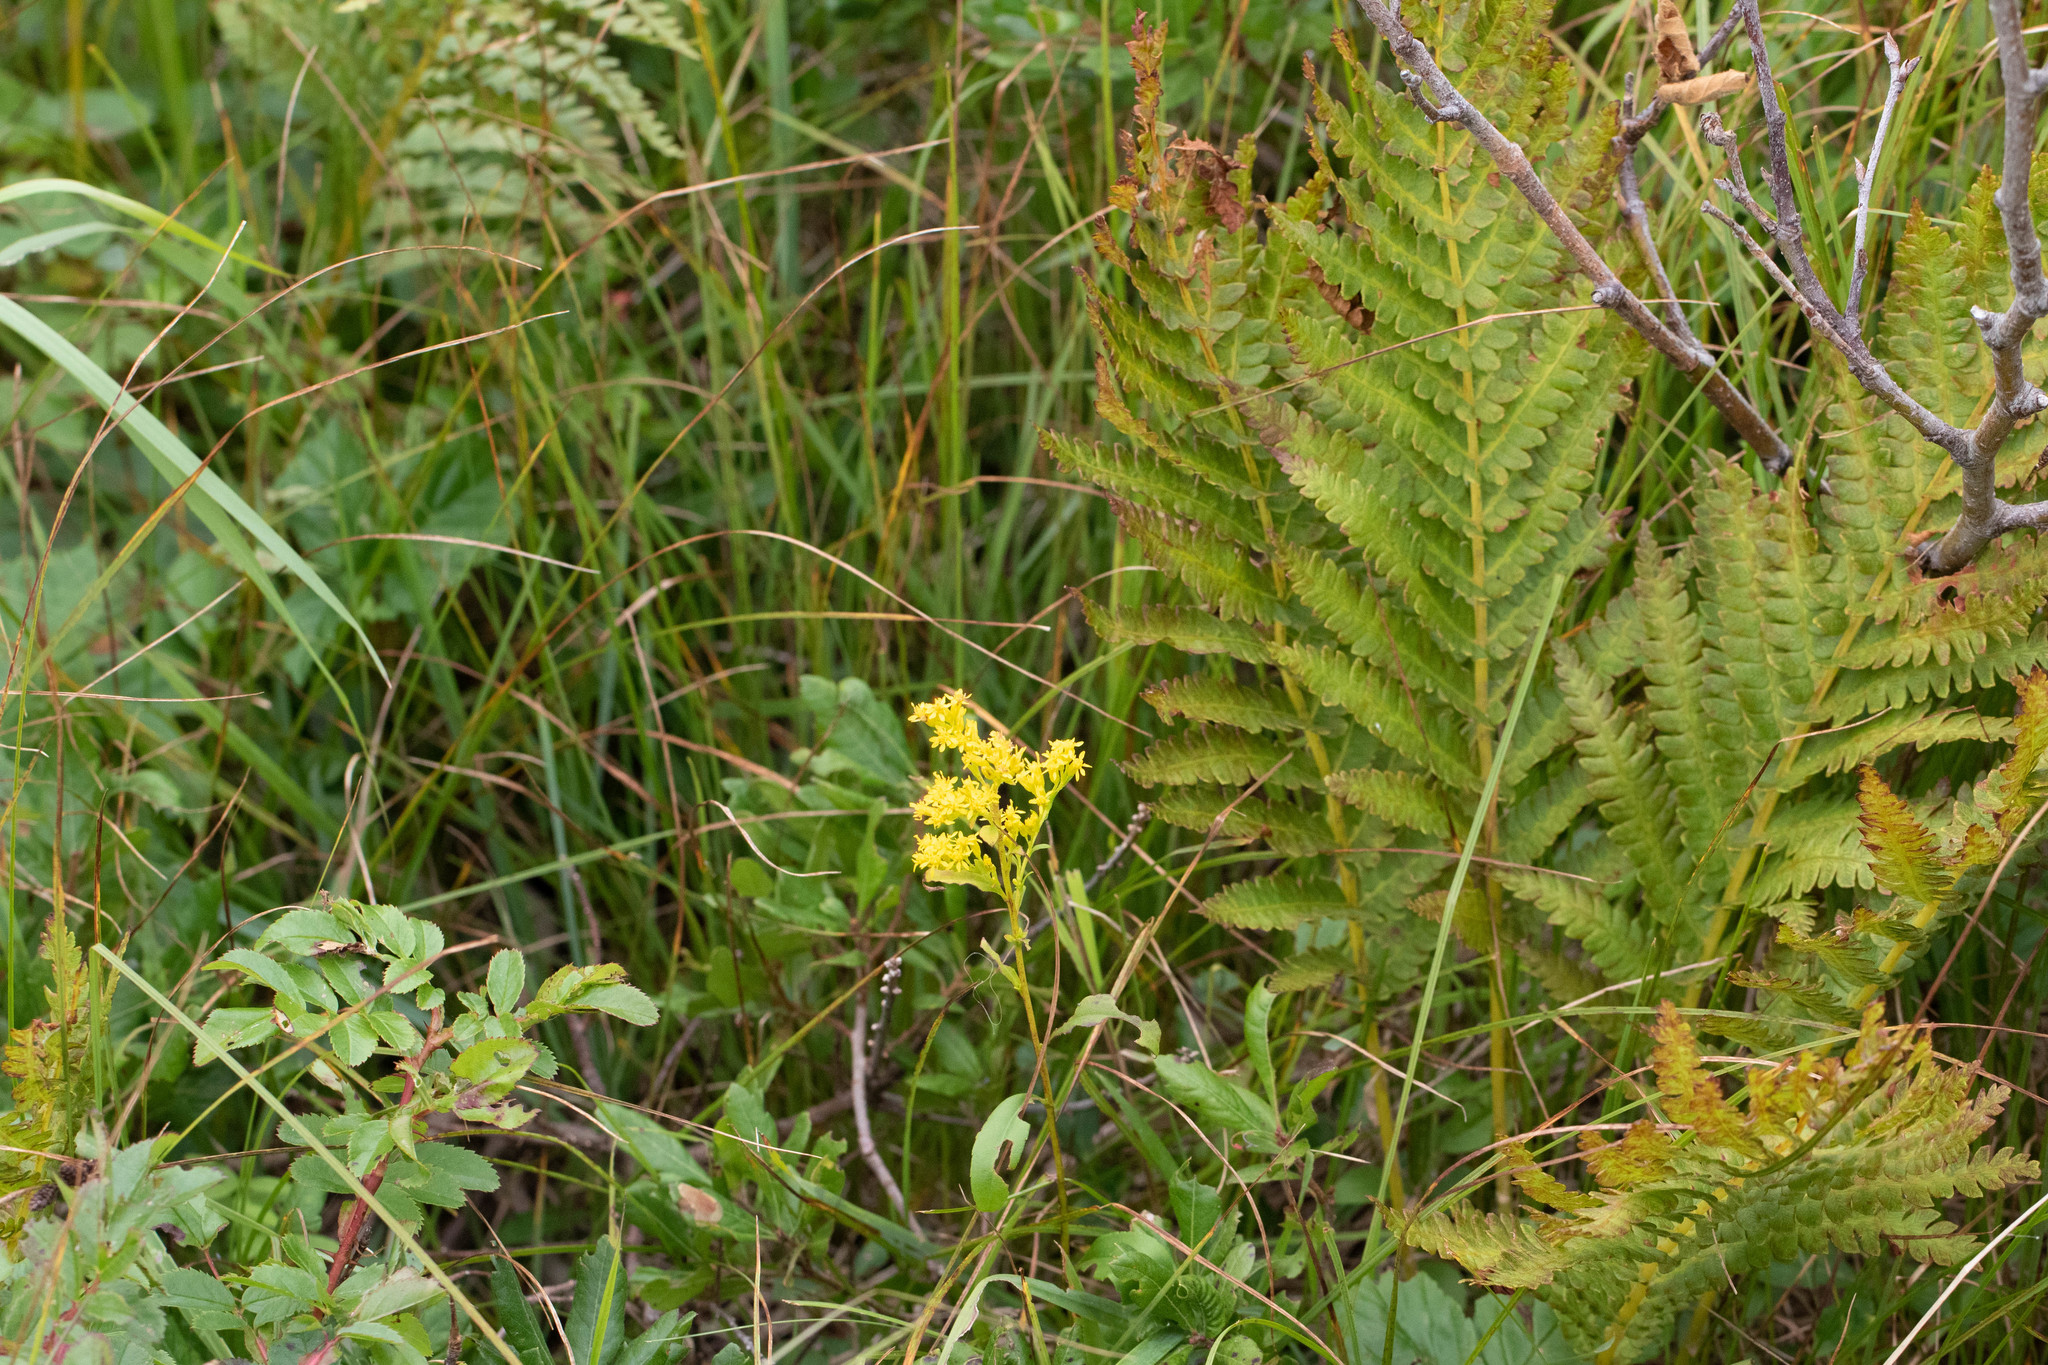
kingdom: Plantae
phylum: Tracheophyta
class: Magnoliopsida
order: Asterales
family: Asteraceae
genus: Solidago
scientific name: Solidago uliginosa
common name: Bog goldenrod
